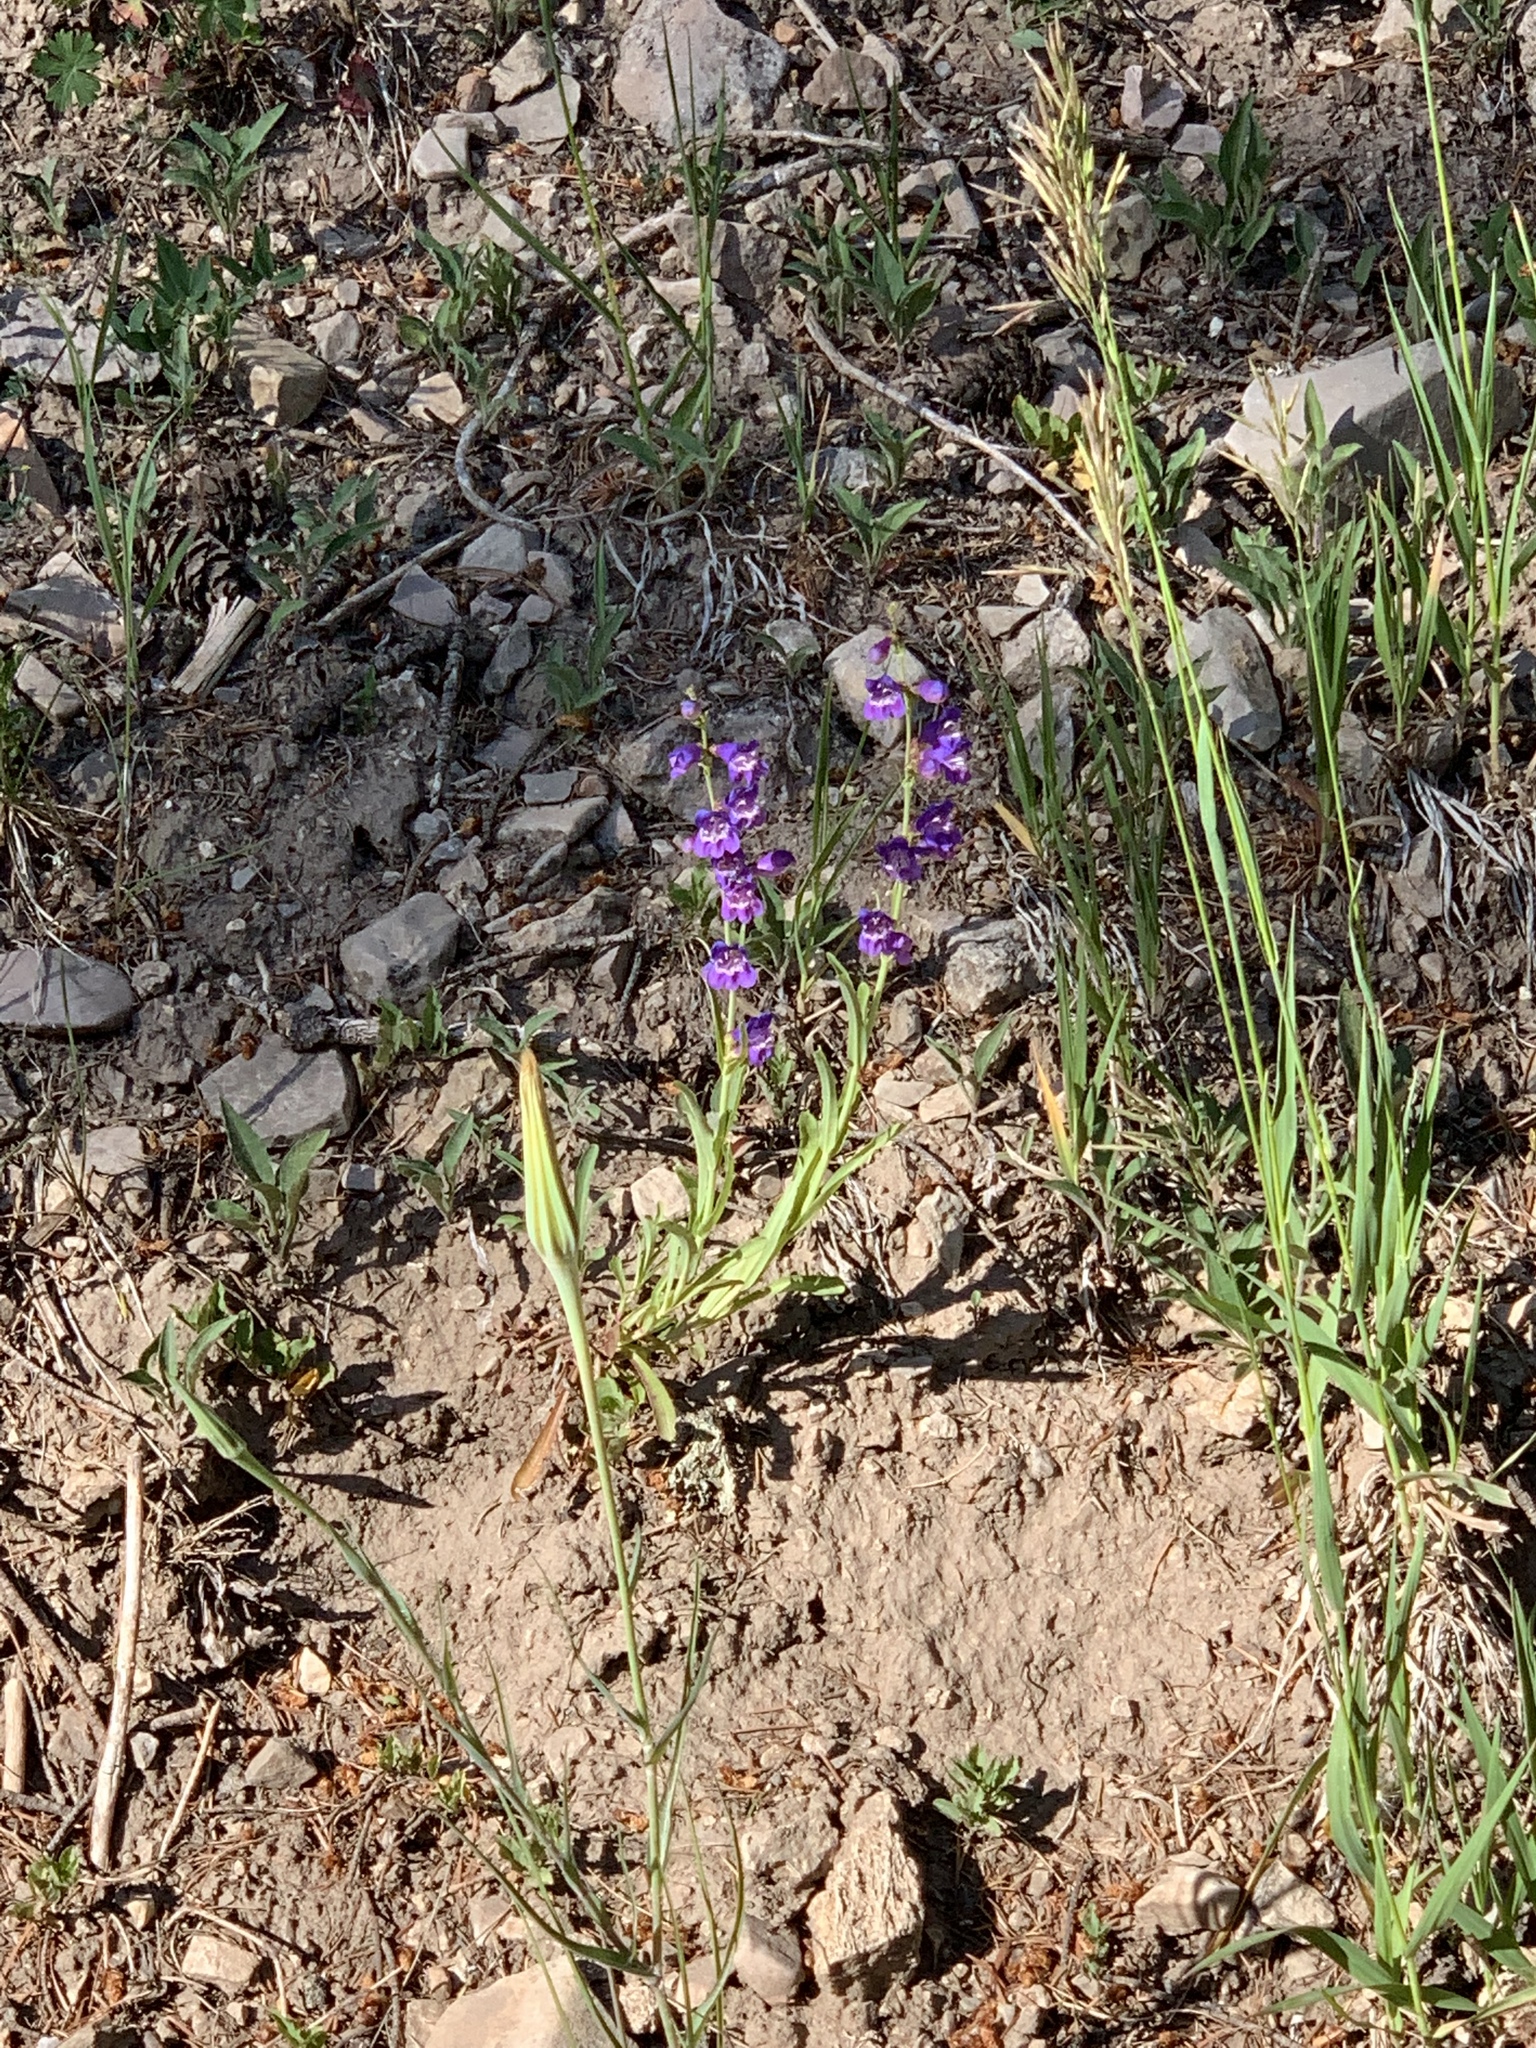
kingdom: Plantae
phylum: Tracheophyta
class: Magnoliopsida
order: Lamiales
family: Plantaginaceae
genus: Penstemon
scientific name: Penstemon neomexicanus
